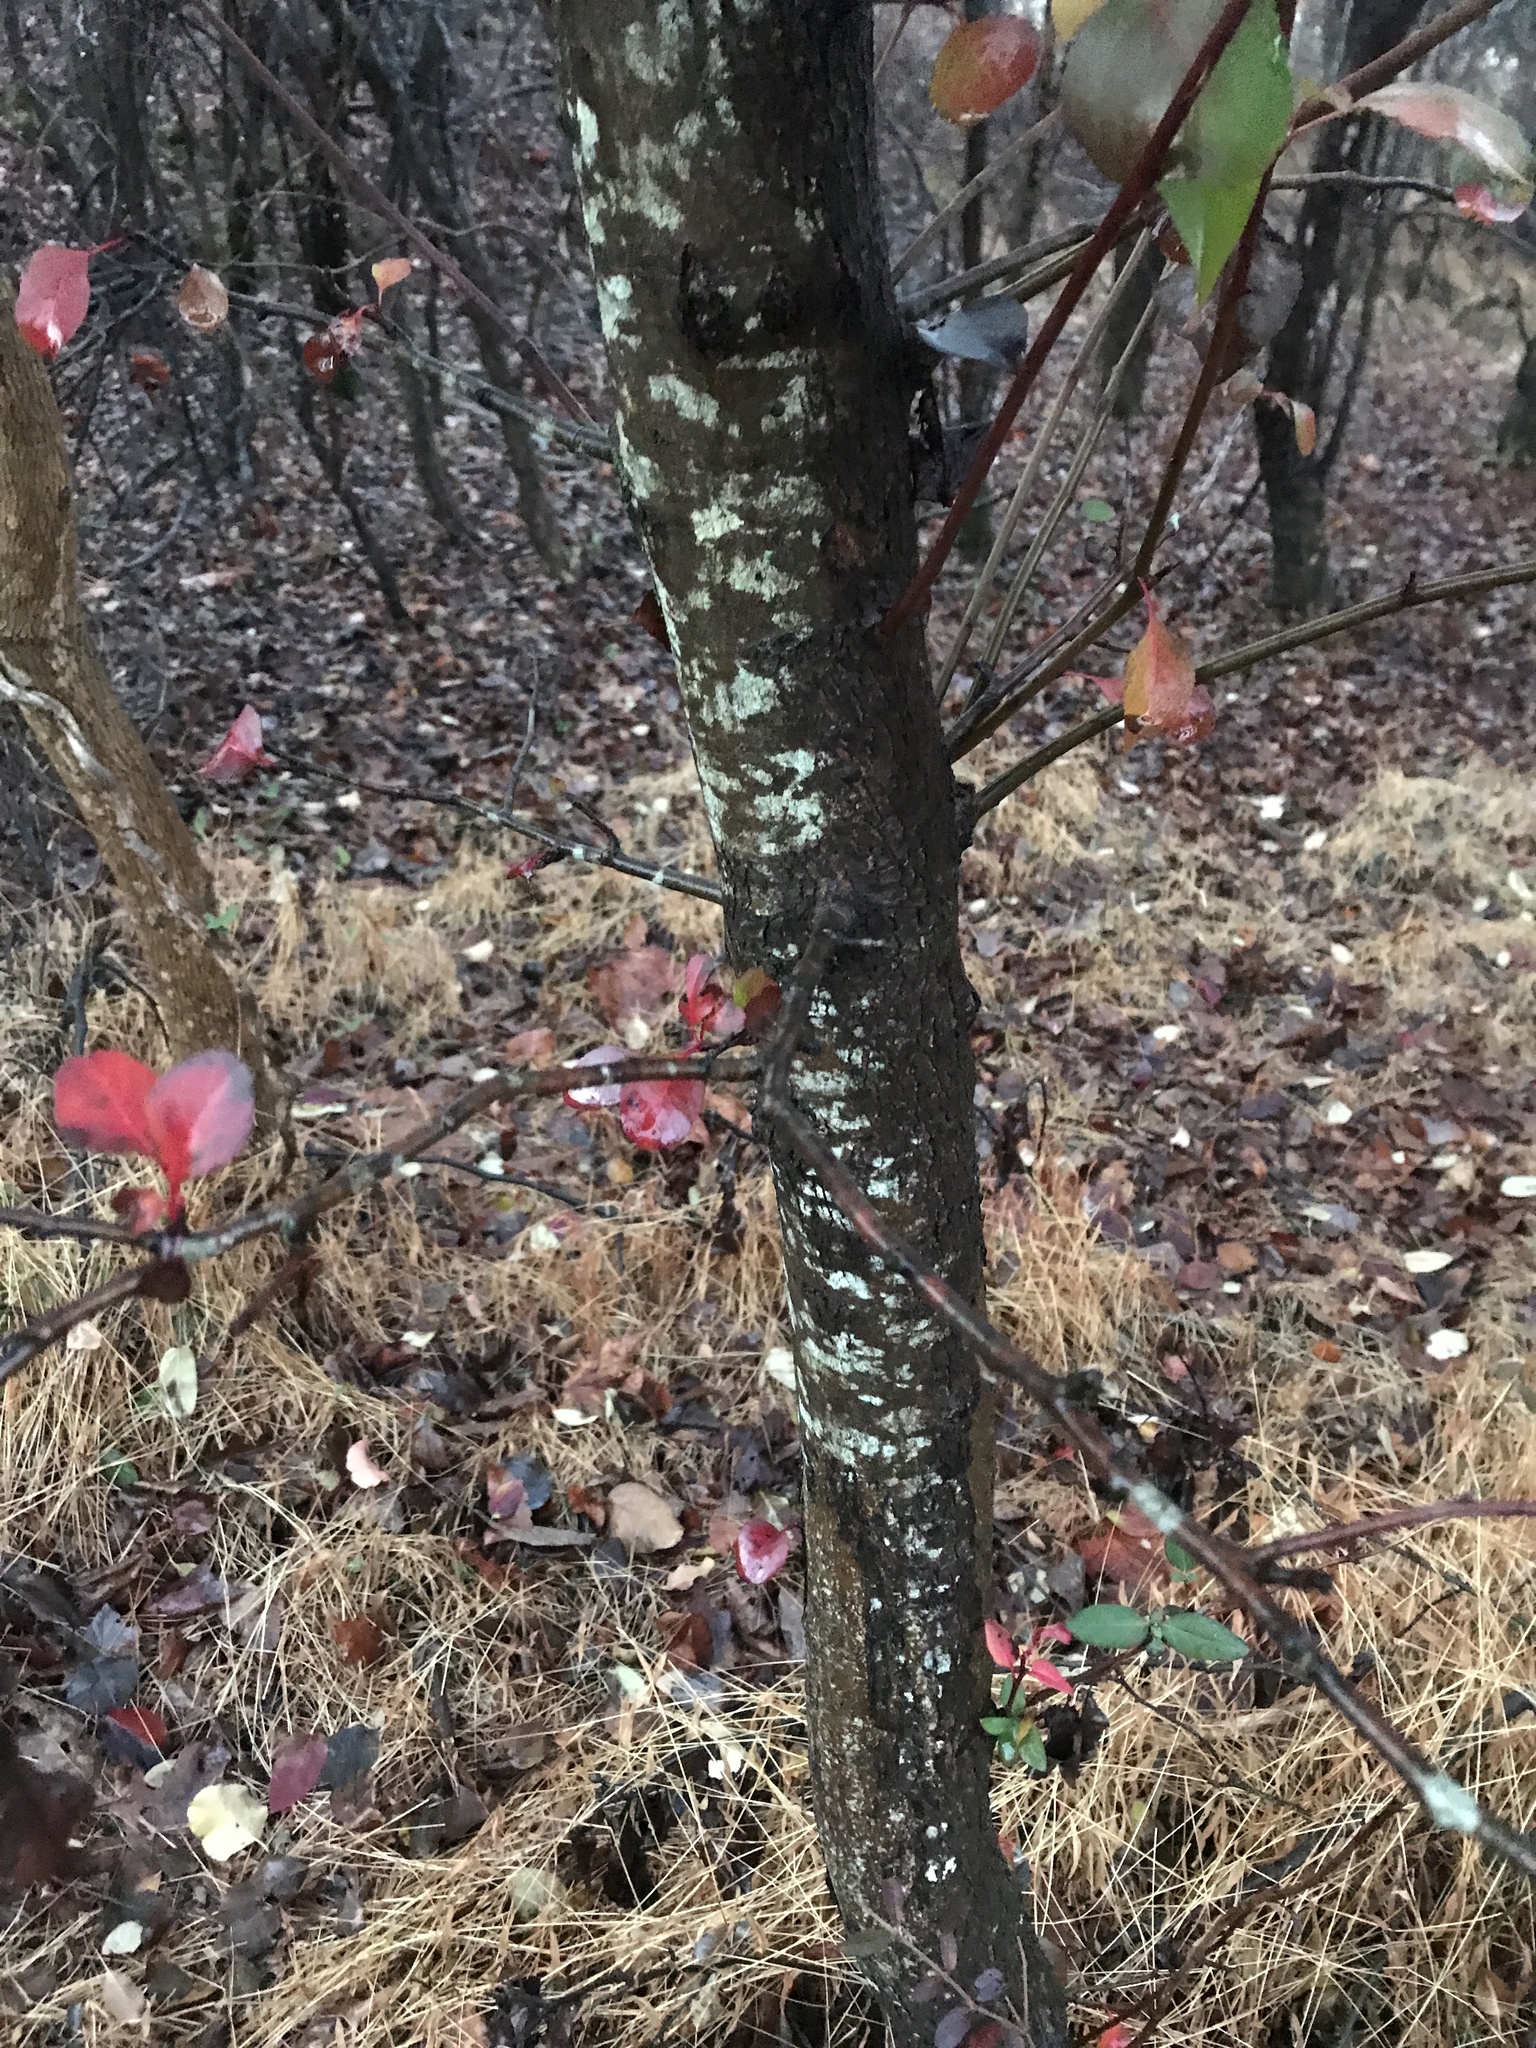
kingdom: Plantae
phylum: Tracheophyta
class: Magnoliopsida
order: Rosales
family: Rosaceae
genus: Pyrus
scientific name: Pyrus calleryana
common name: Callery pear
